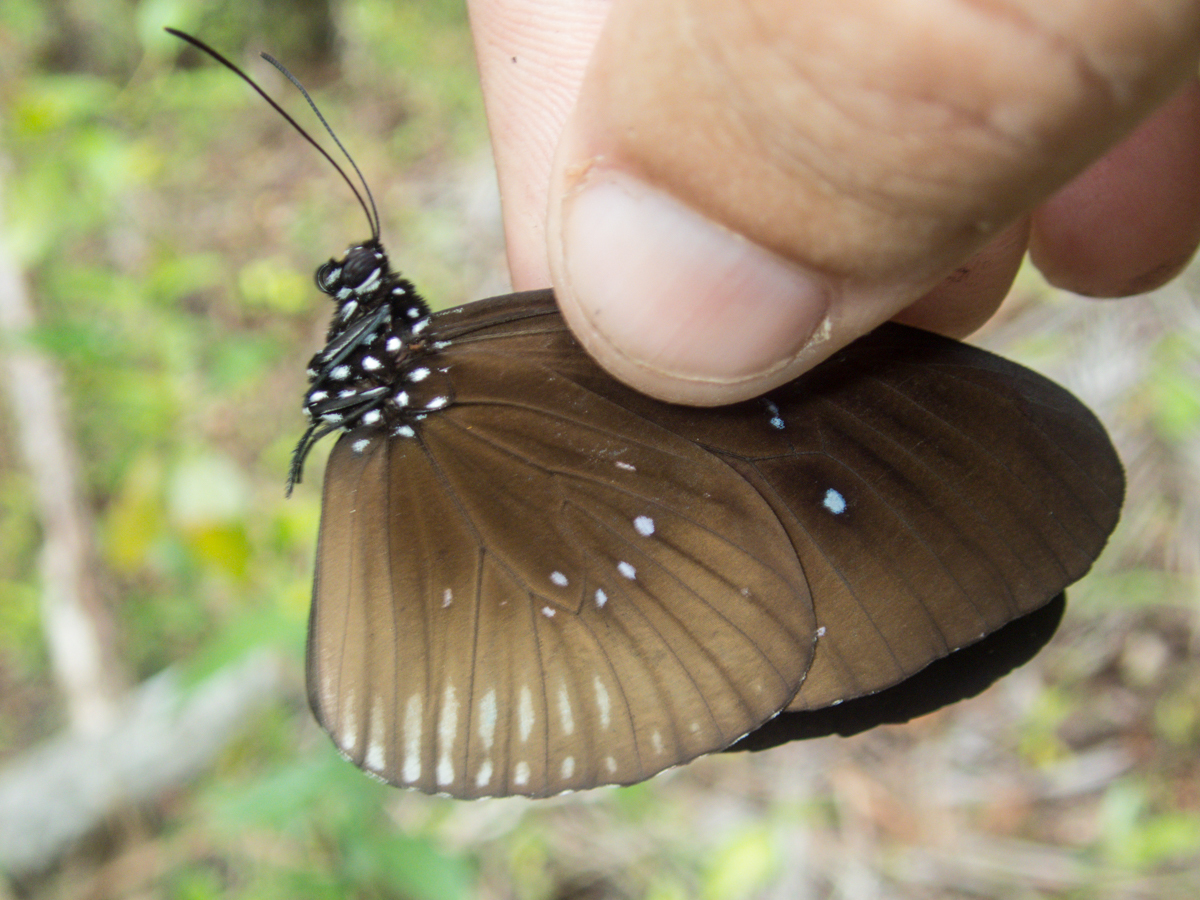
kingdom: Animalia
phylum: Arthropoda
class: Insecta
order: Lepidoptera
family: Nymphalidae
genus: Euploea
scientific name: Euploea eyndhovii
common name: Striped black crow butterfly
